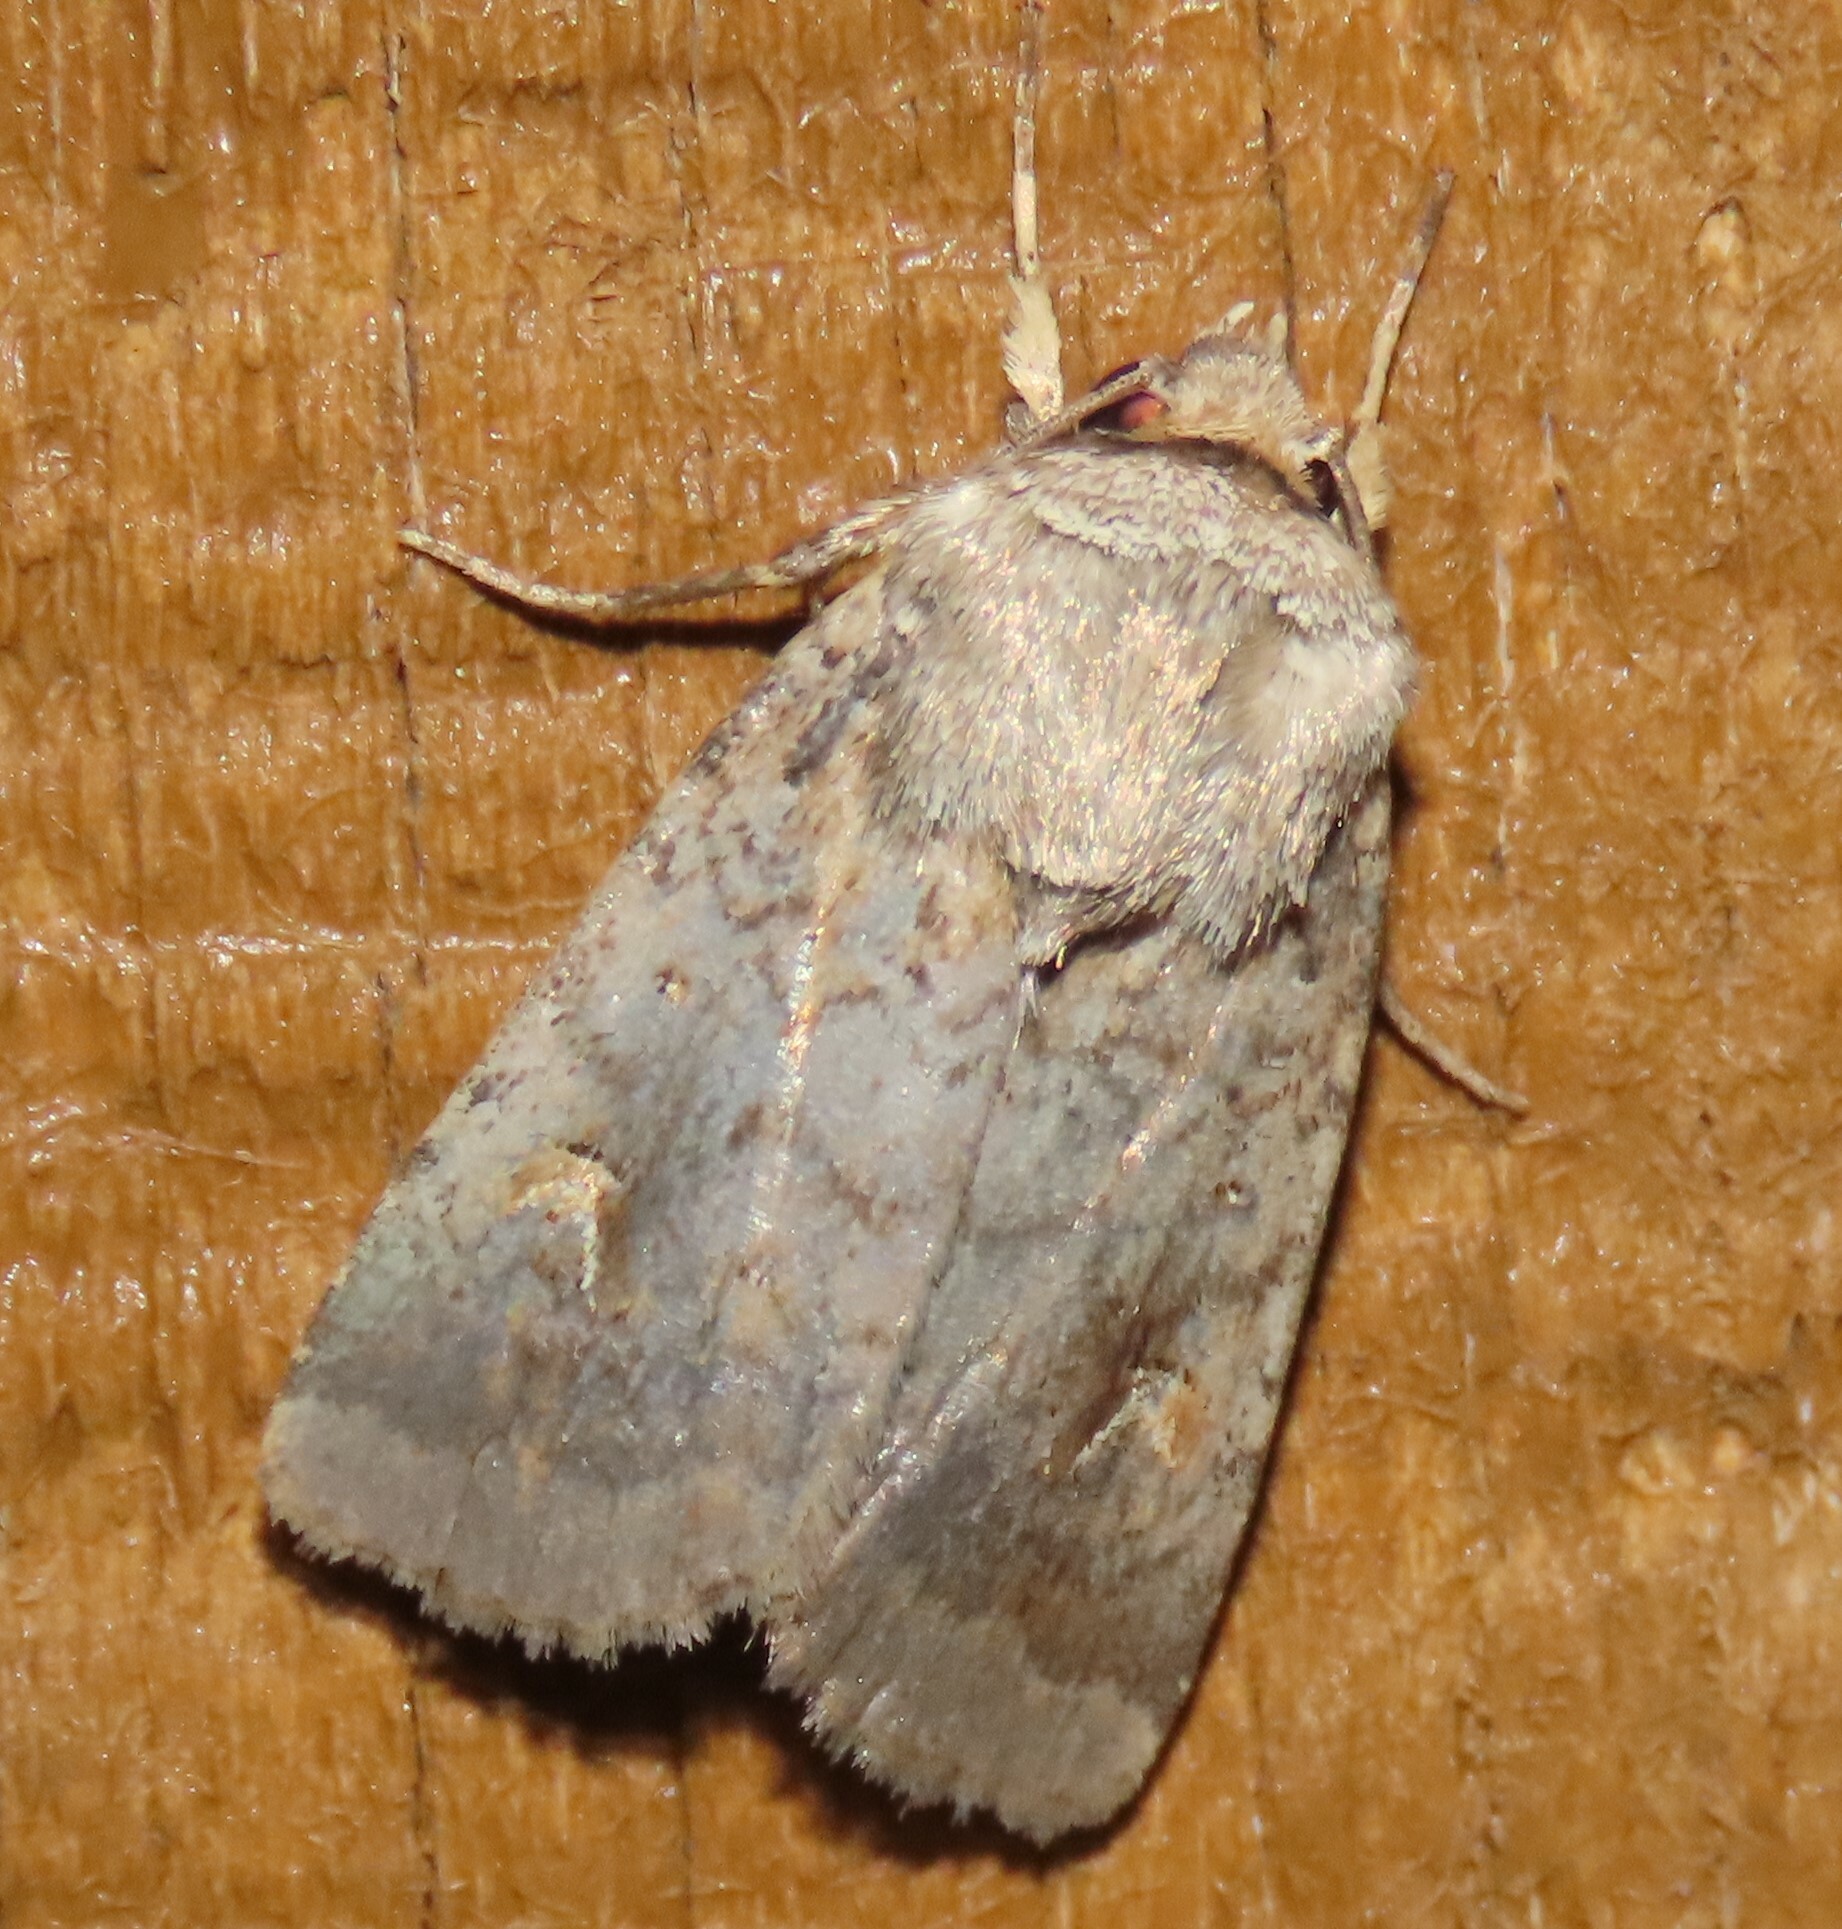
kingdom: Animalia
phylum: Arthropoda
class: Insecta
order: Lepidoptera
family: Noctuidae
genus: Proteuxoa
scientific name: Proteuxoa tetronycha
